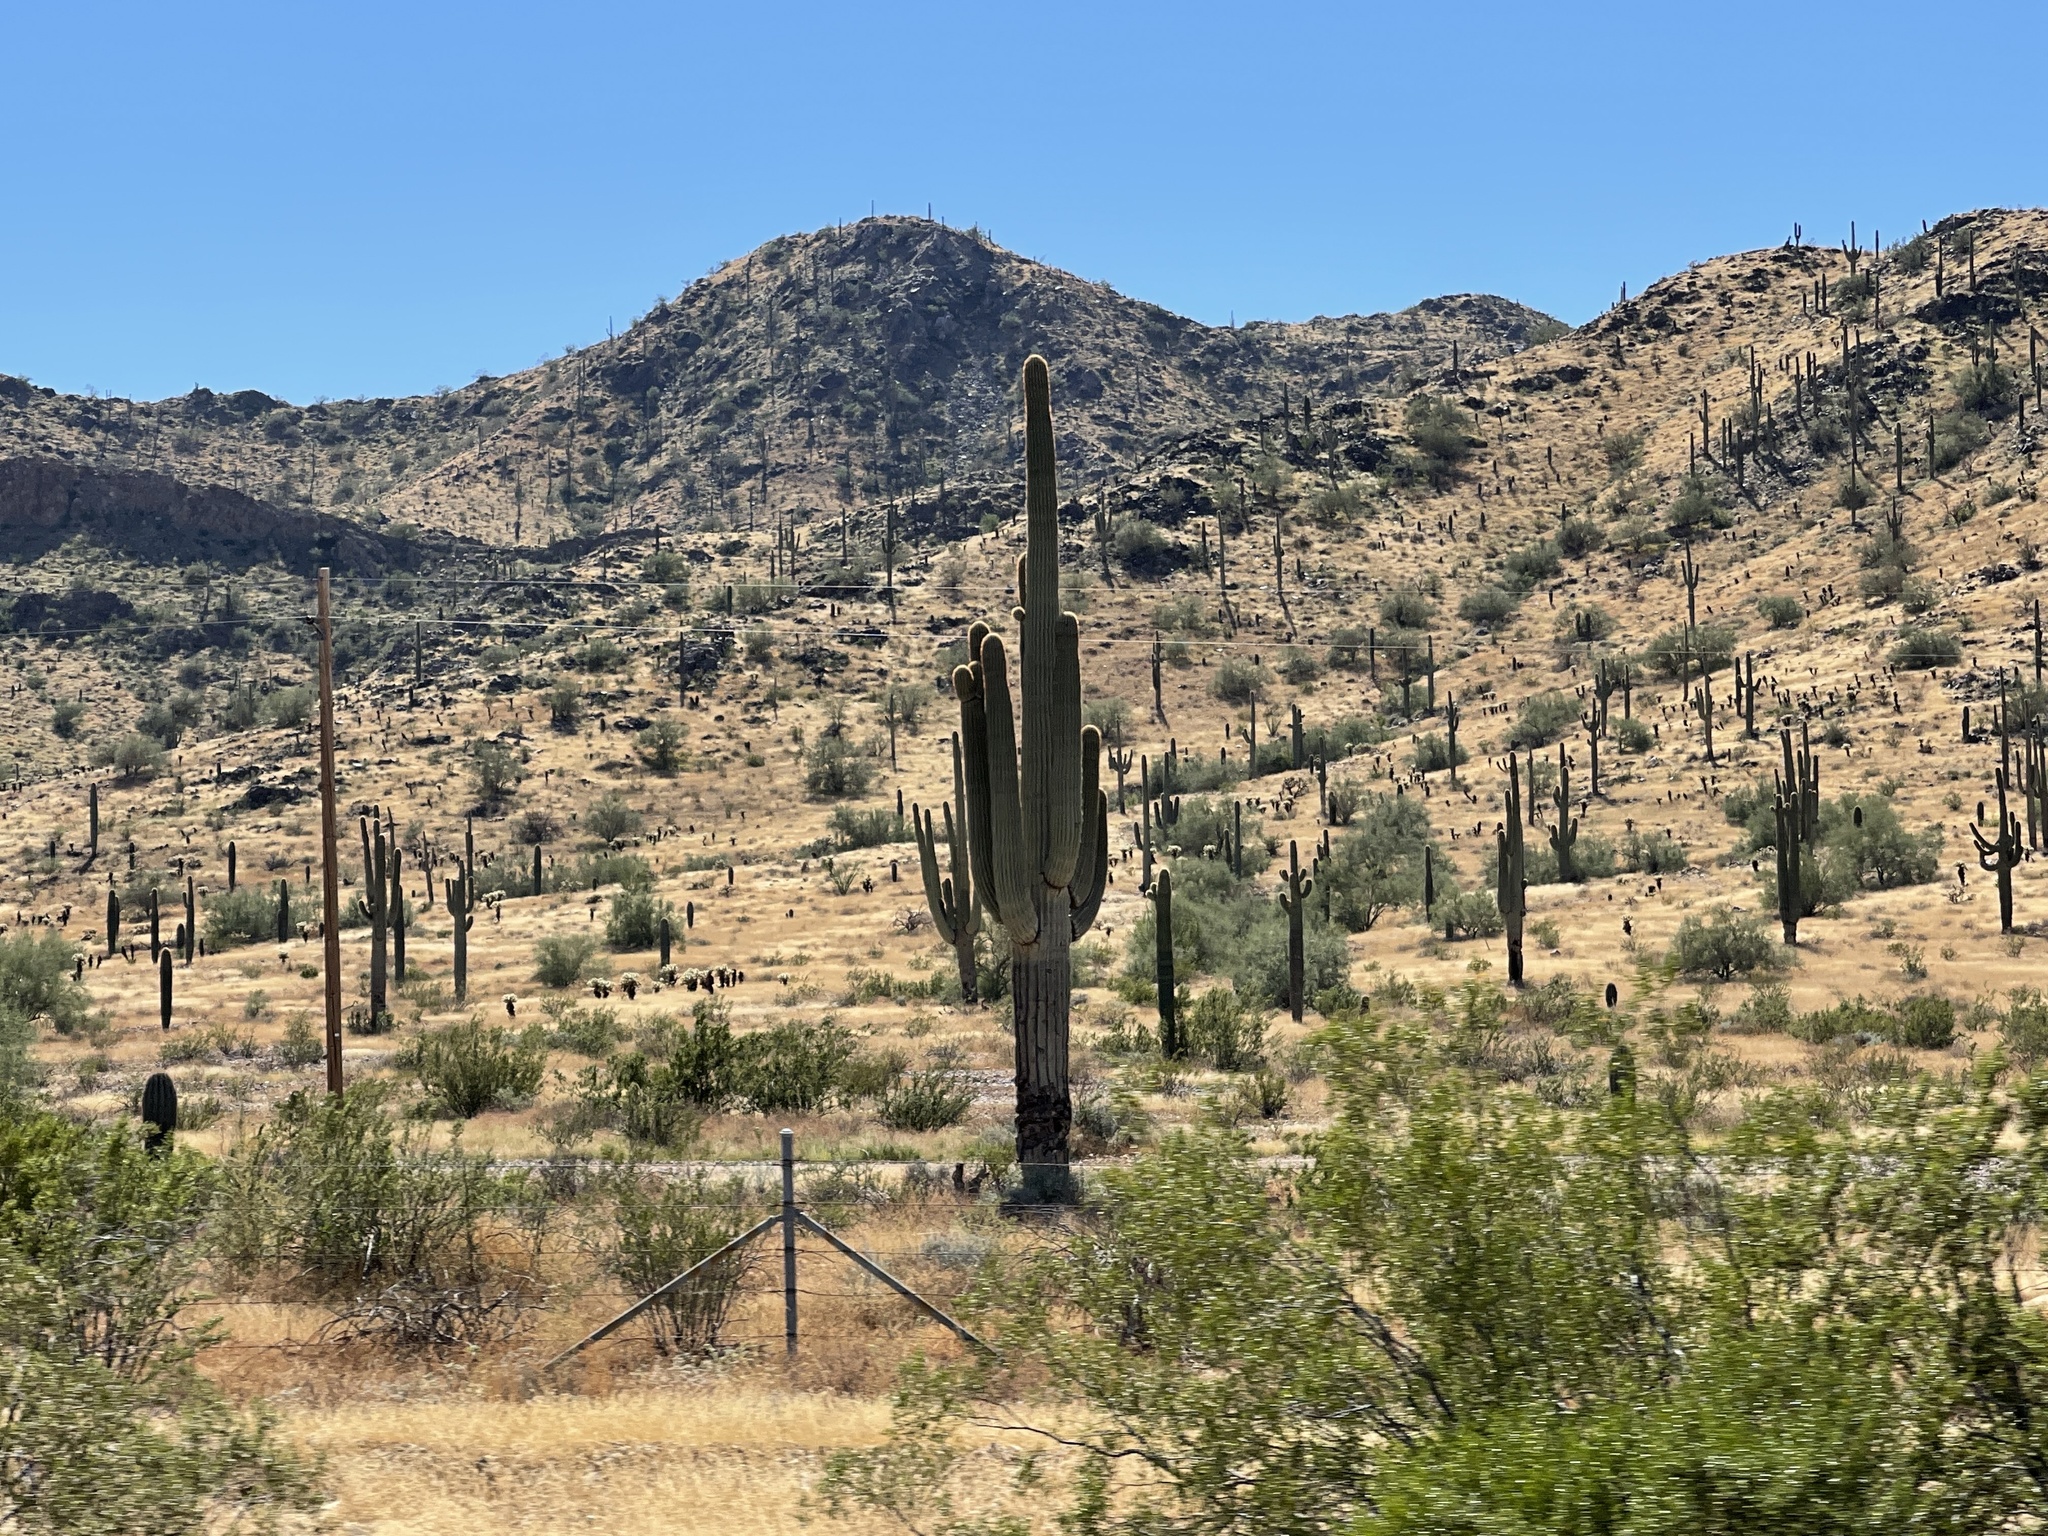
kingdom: Plantae
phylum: Tracheophyta
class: Magnoliopsida
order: Caryophyllales
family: Cactaceae
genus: Carnegiea
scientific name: Carnegiea gigantea
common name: Saguaro
